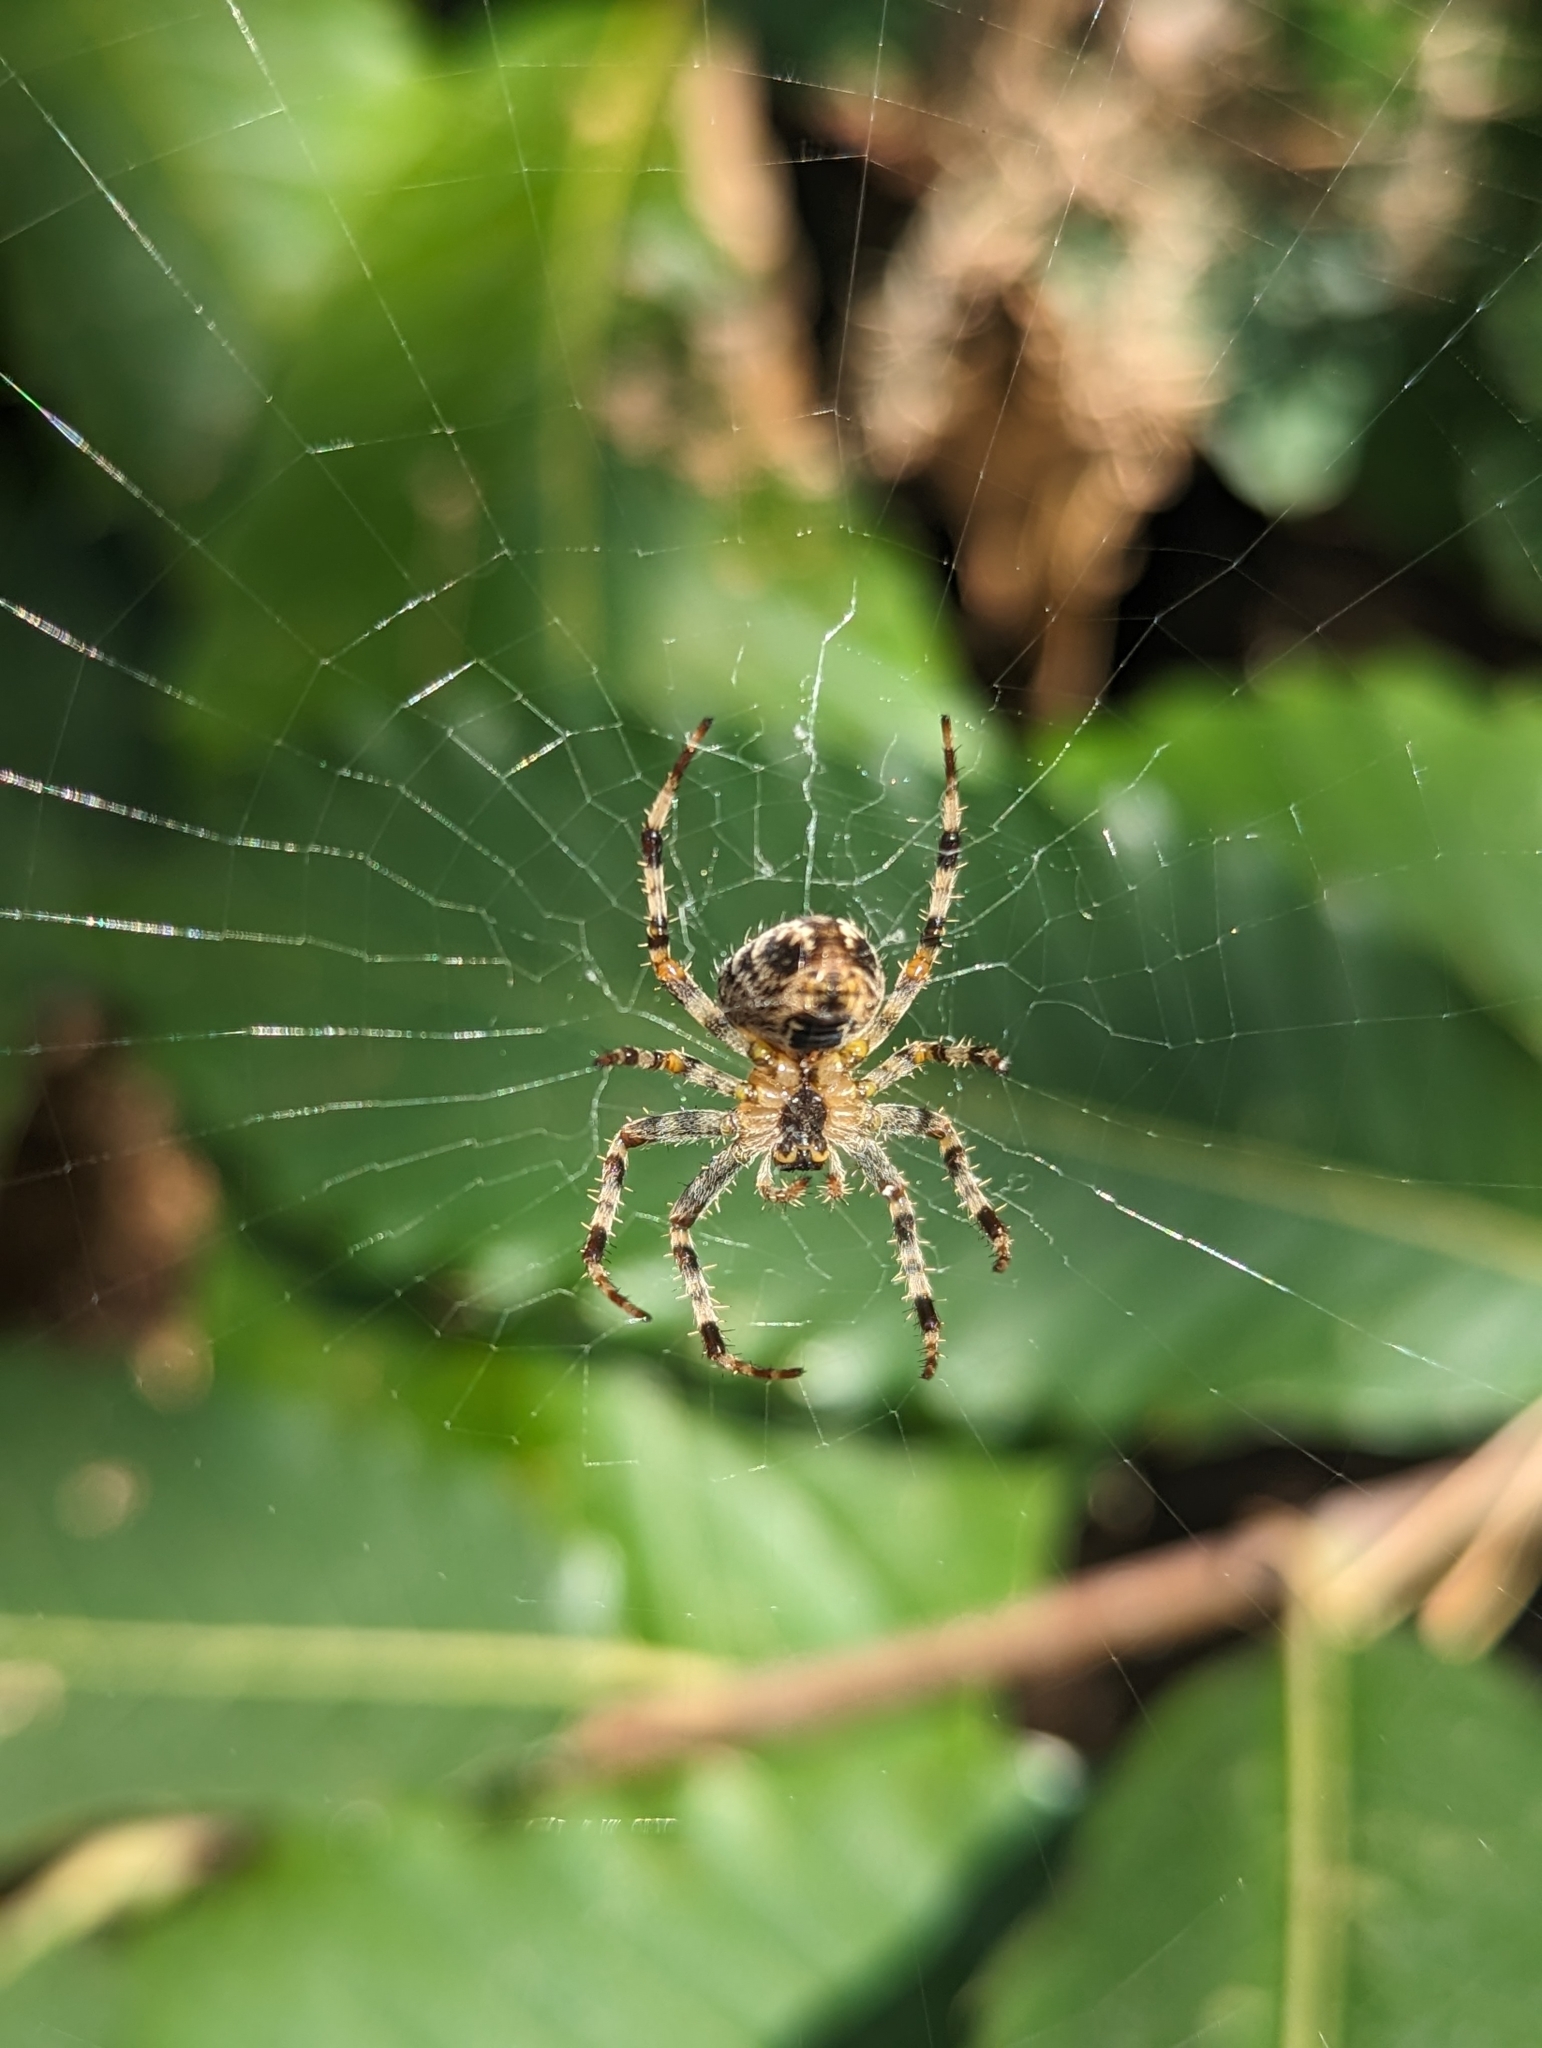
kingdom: Animalia
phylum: Arthropoda
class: Arachnida
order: Araneae
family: Araneidae
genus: Araneus
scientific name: Araneus diadematus
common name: Cross orbweaver
